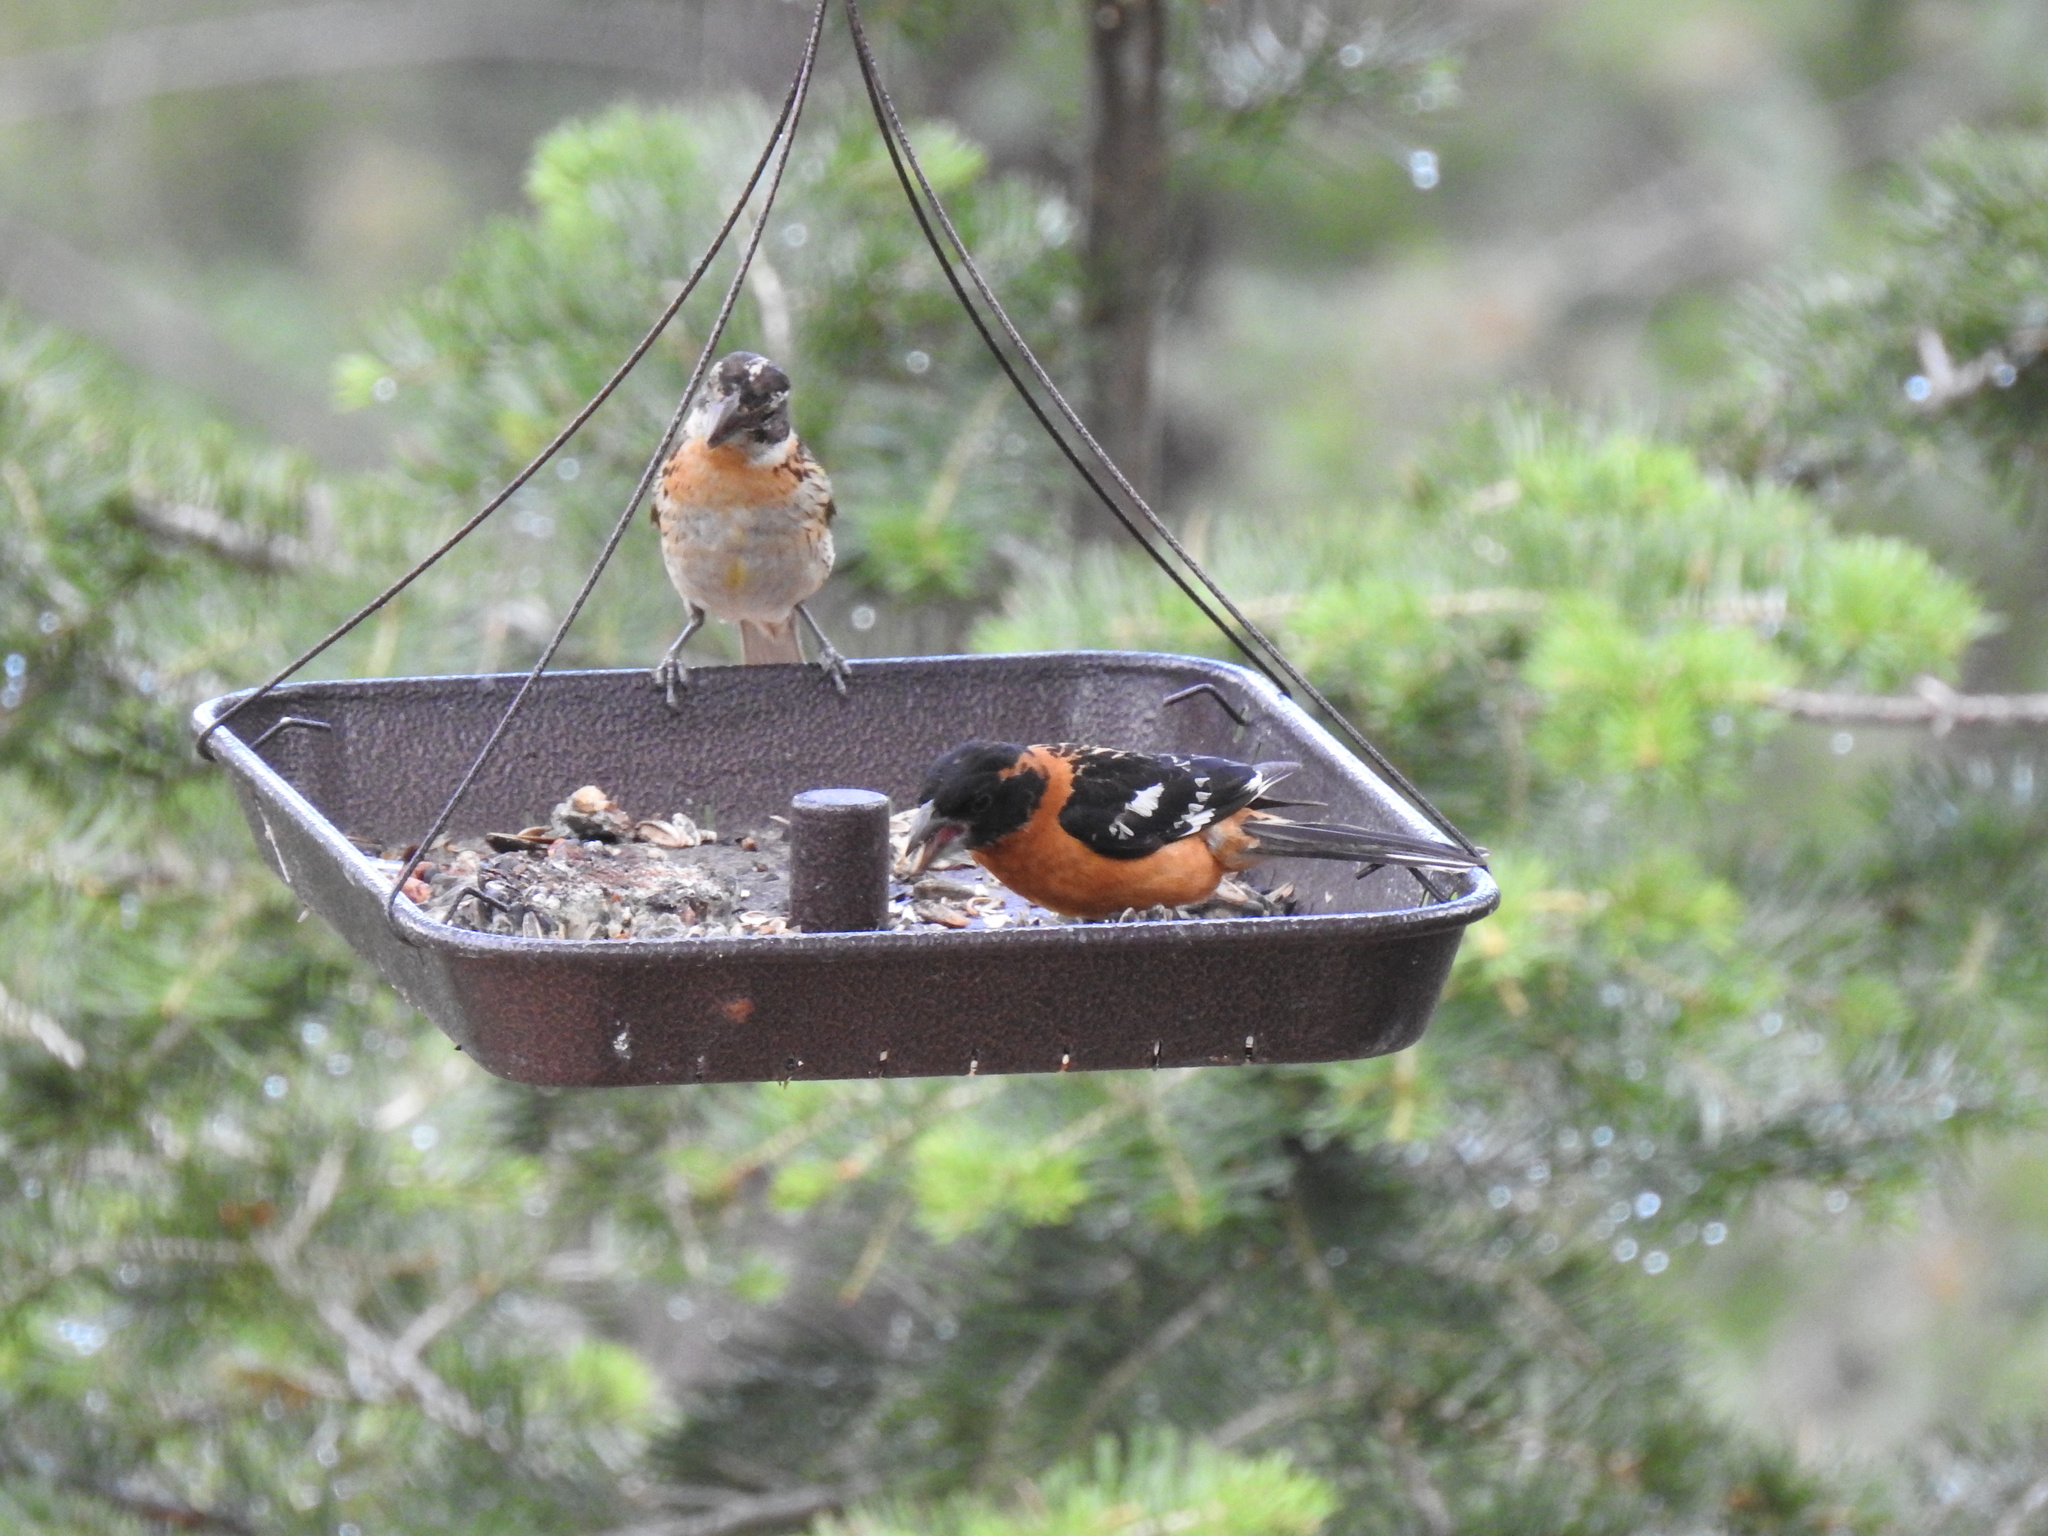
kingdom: Animalia
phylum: Chordata
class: Aves
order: Passeriformes
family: Cardinalidae
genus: Pheucticus
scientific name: Pheucticus melanocephalus
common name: Black-headed grosbeak
